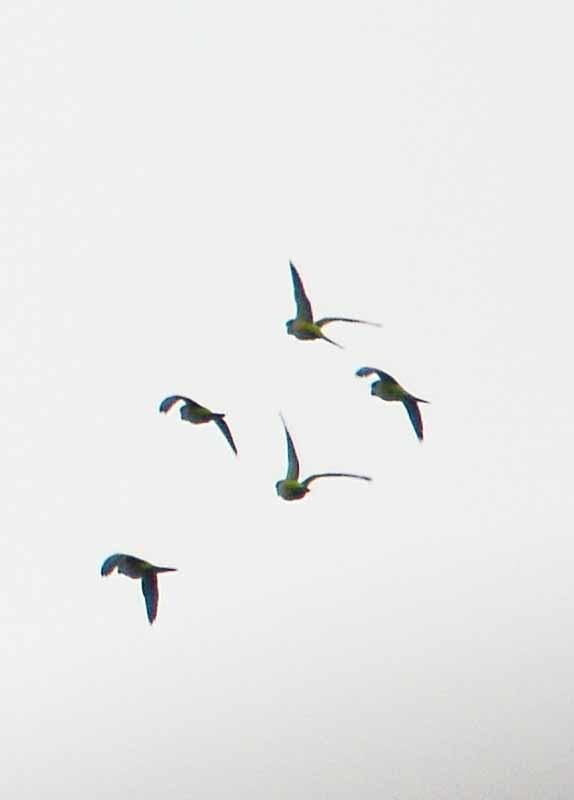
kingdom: Animalia
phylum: Chordata
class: Aves
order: Psittaciformes
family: Psittacidae
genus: Myiopsitta
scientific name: Myiopsitta monachus
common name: Monk parakeet
